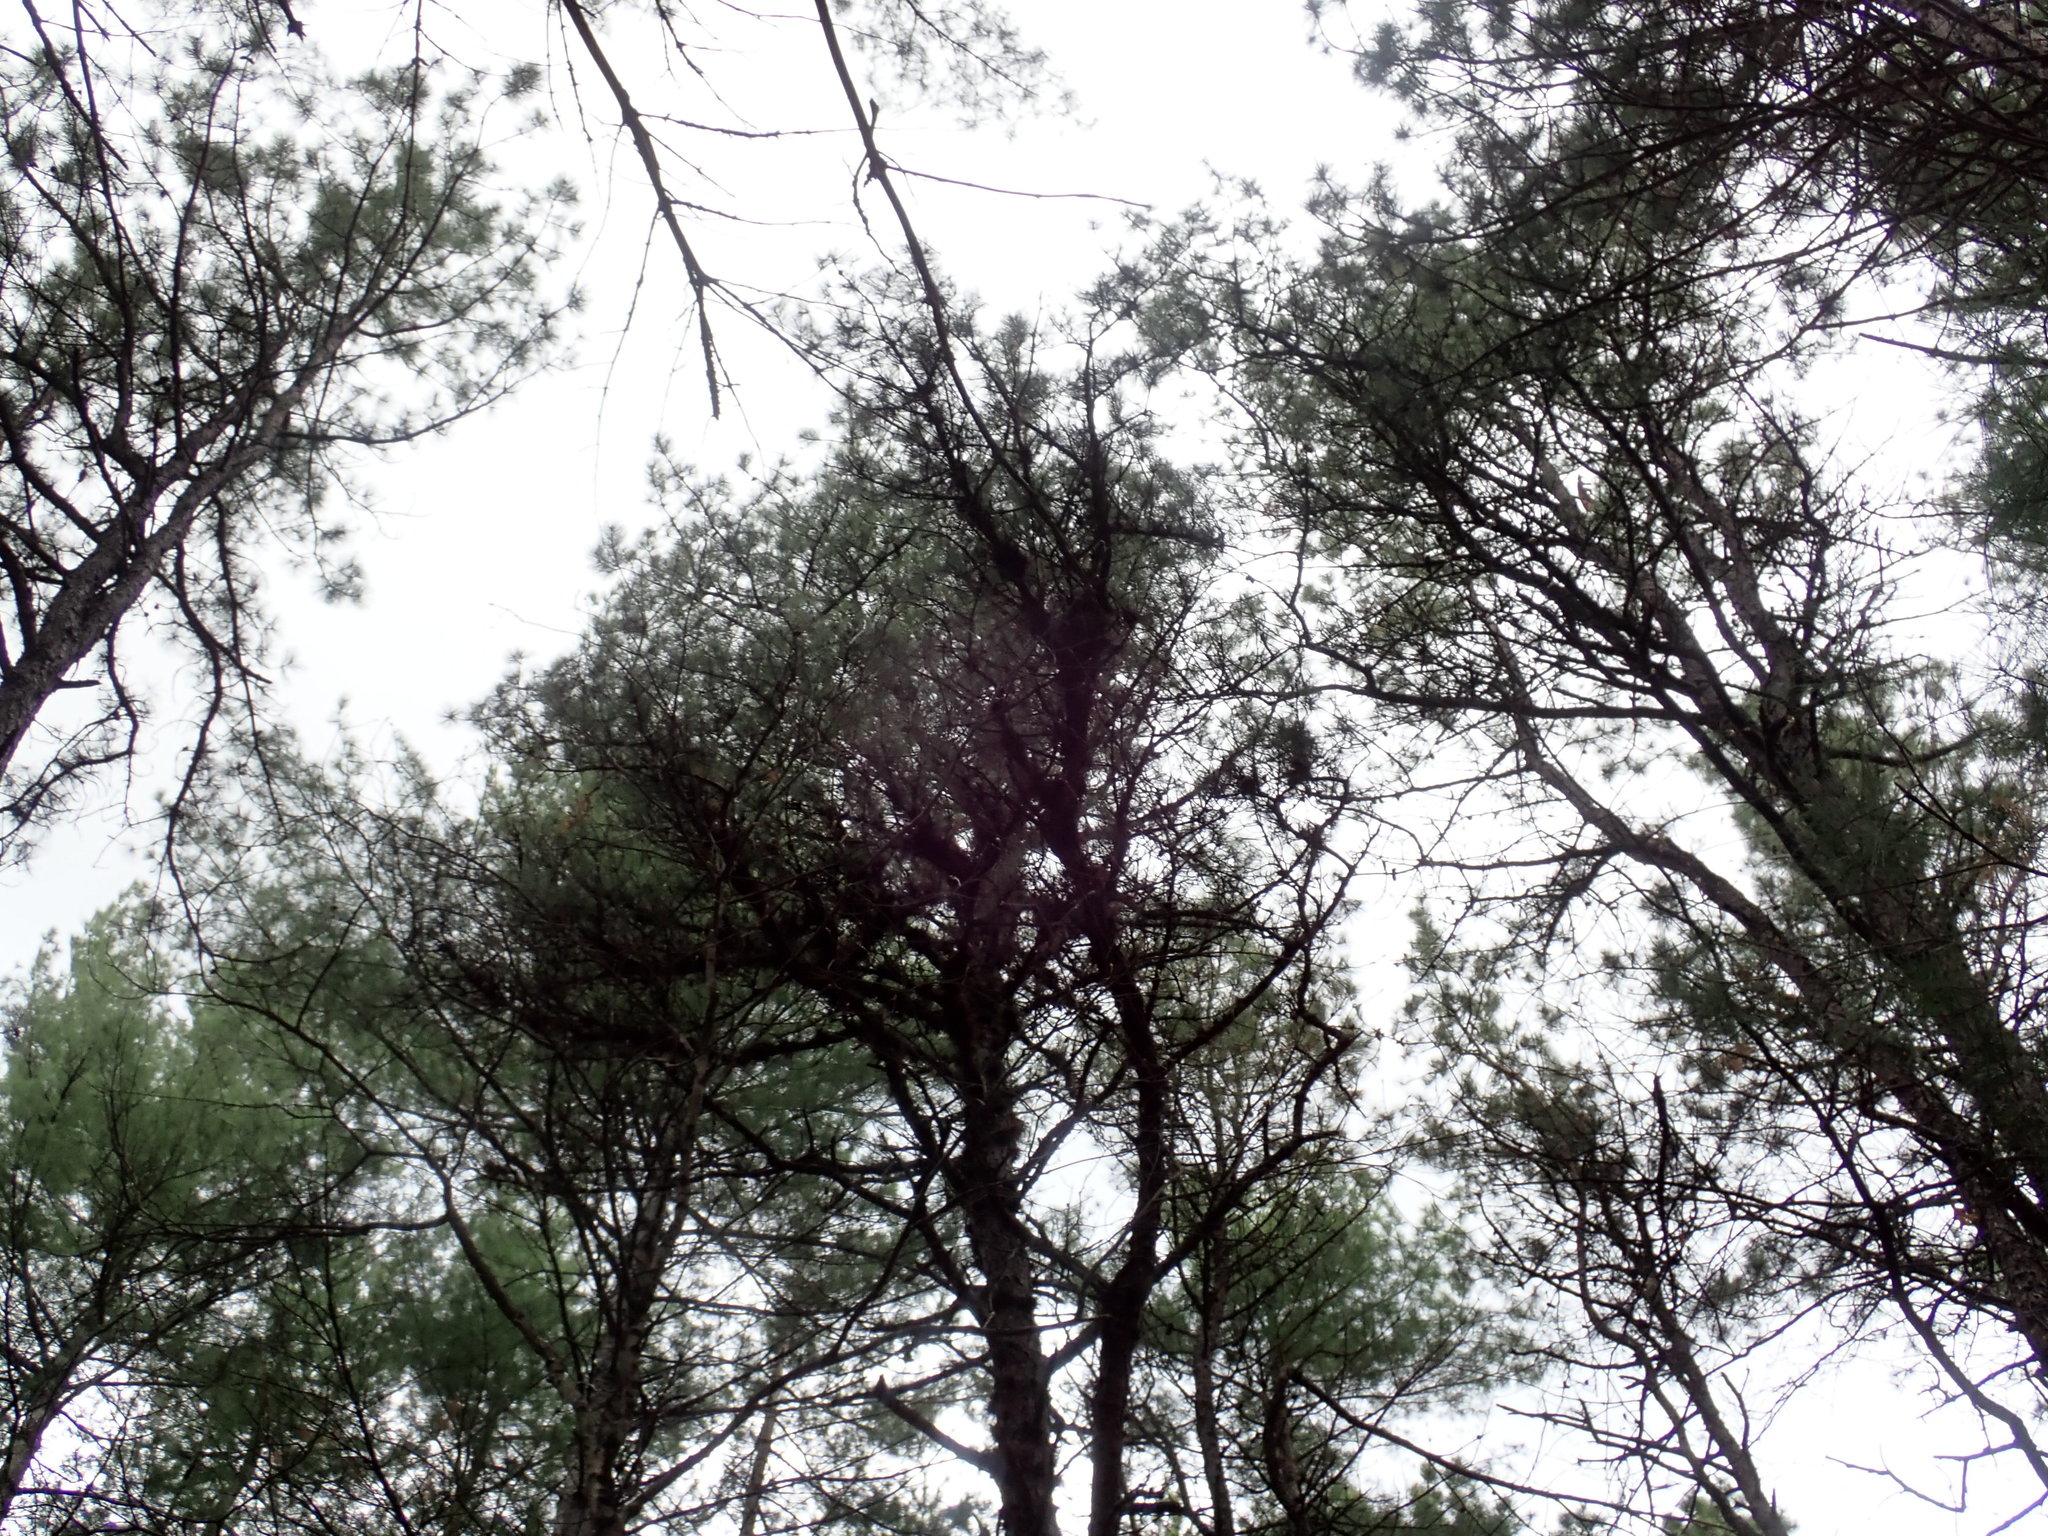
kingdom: Plantae
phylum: Tracheophyta
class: Pinopsida
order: Pinales
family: Pinaceae
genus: Pinus
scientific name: Pinus rigida
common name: Pitch pine
